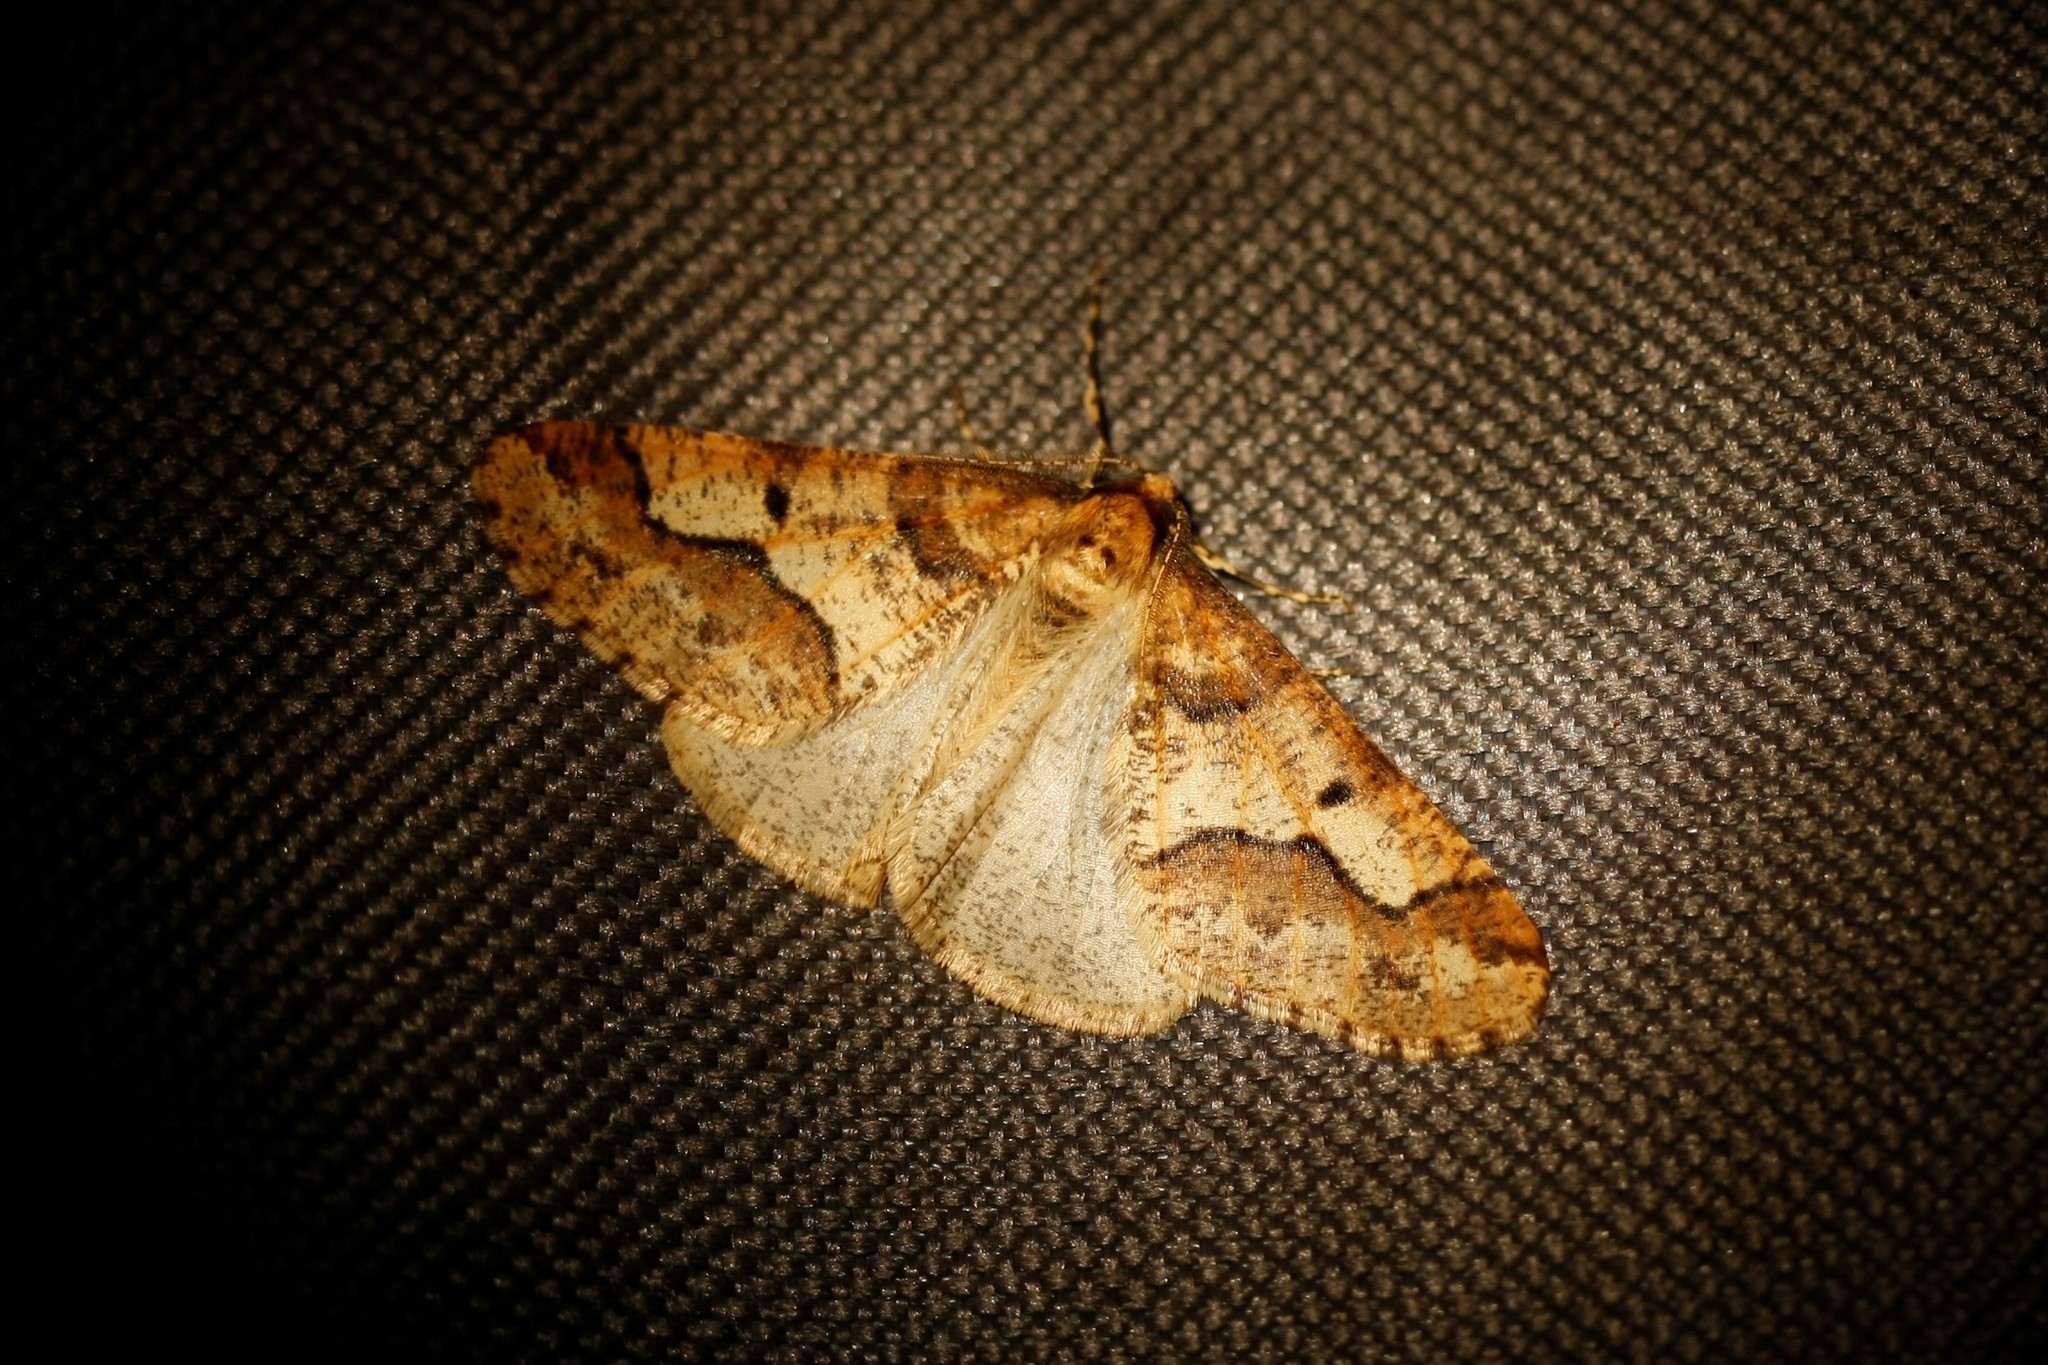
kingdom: Animalia
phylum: Arthropoda
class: Insecta
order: Lepidoptera
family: Geometridae
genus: Erannis
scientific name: Erannis defoliaria
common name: Mottled umber
